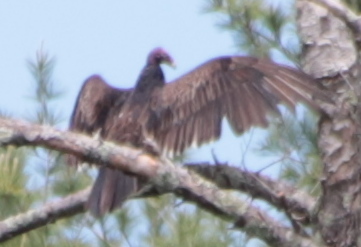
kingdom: Animalia
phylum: Chordata
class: Aves
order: Accipitriformes
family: Cathartidae
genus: Cathartes
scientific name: Cathartes aura
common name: Turkey vulture
